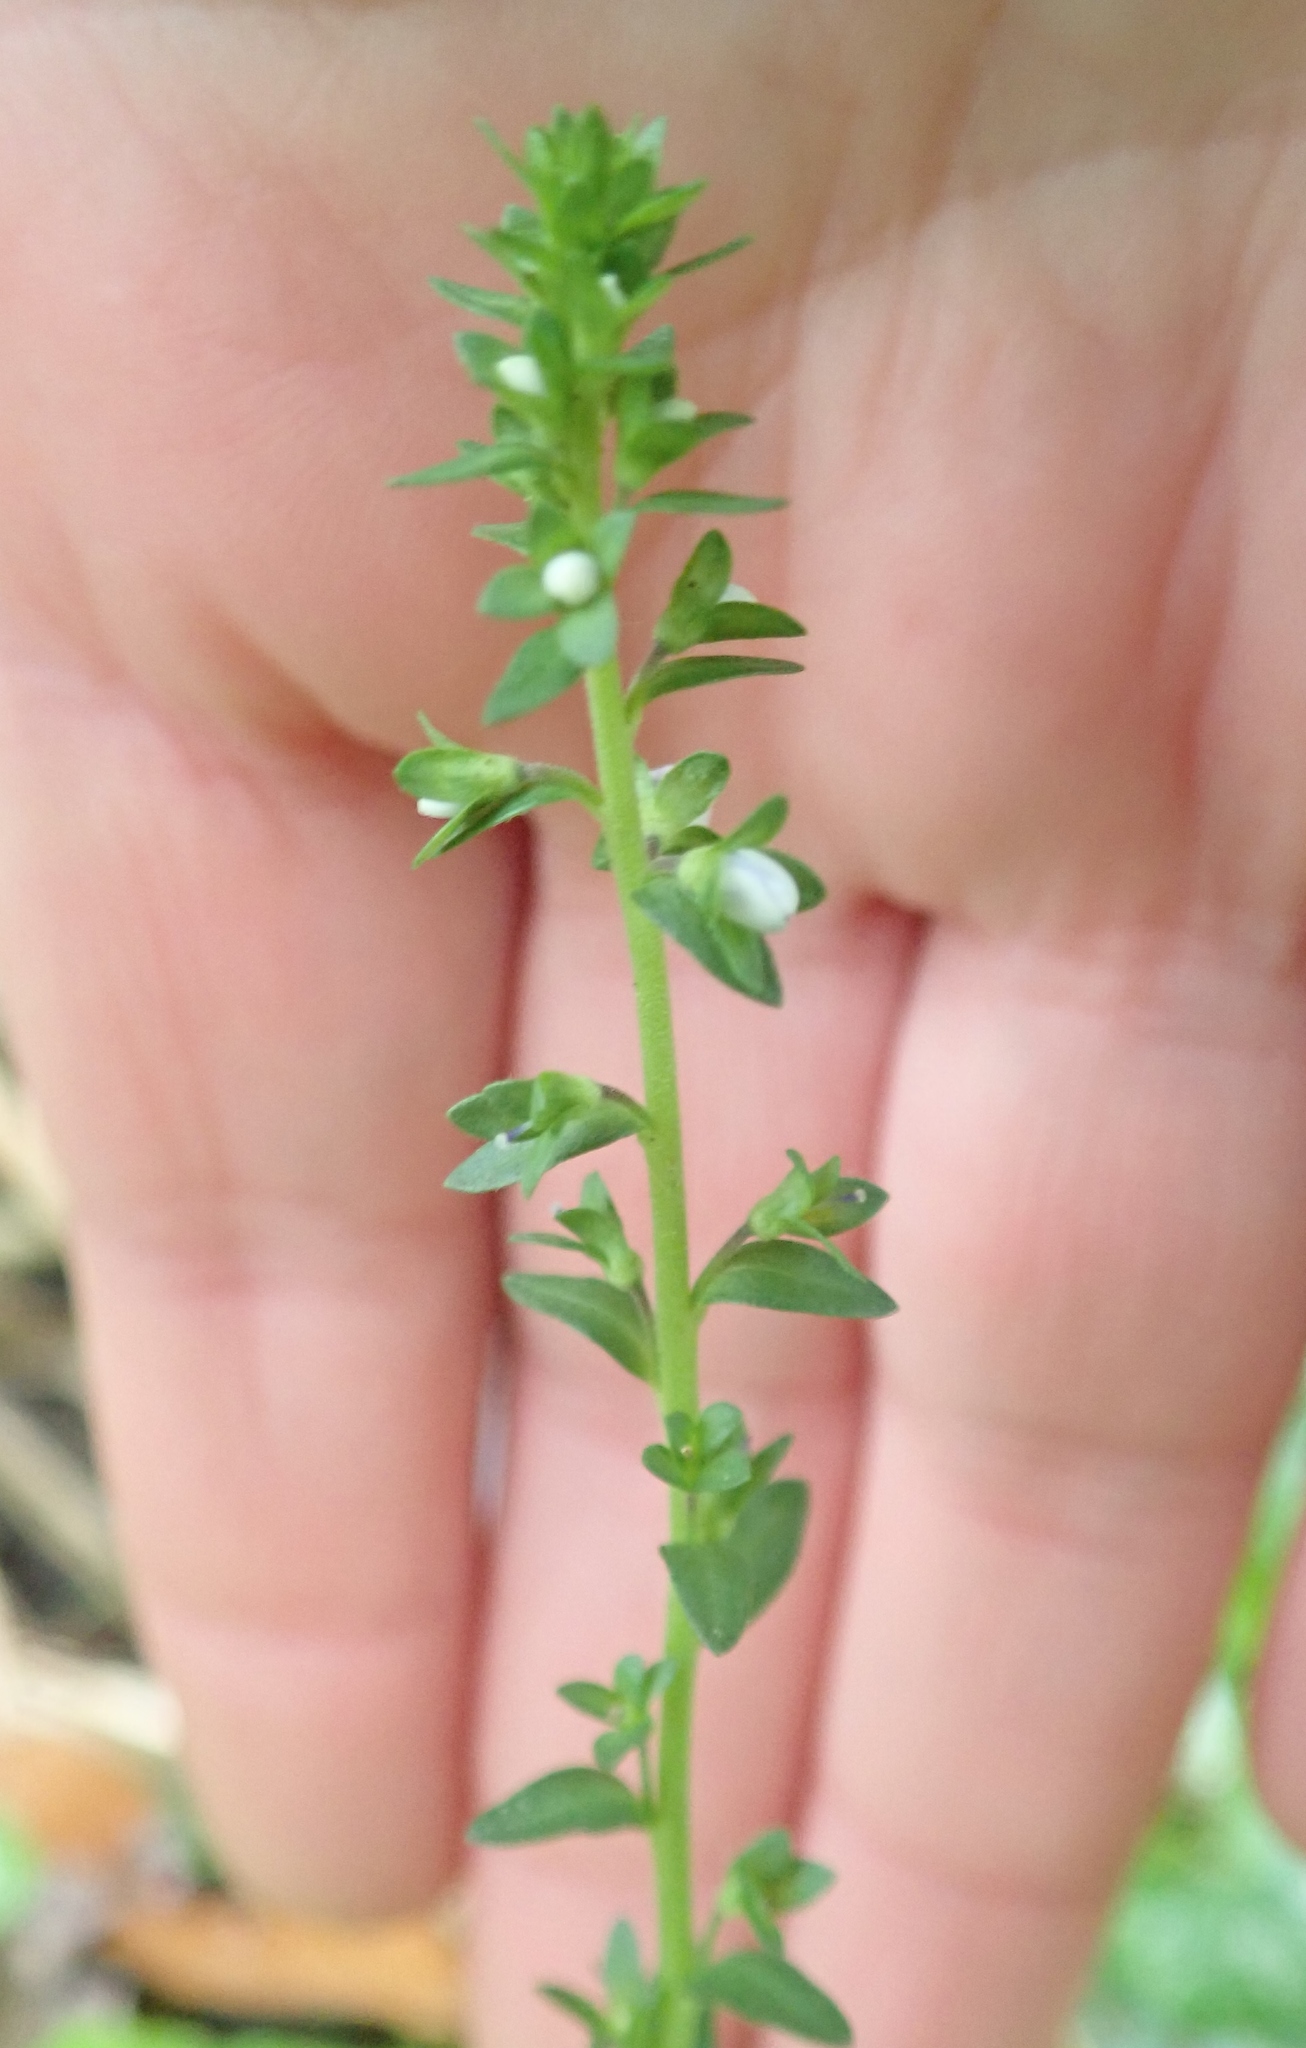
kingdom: Plantae
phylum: Tracheophyta
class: Magnoliopsida
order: Lamiales
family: Plantaginaceae
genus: Veronica
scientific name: Veronica serpyllifolia
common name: Thyme-leaved speedwell
